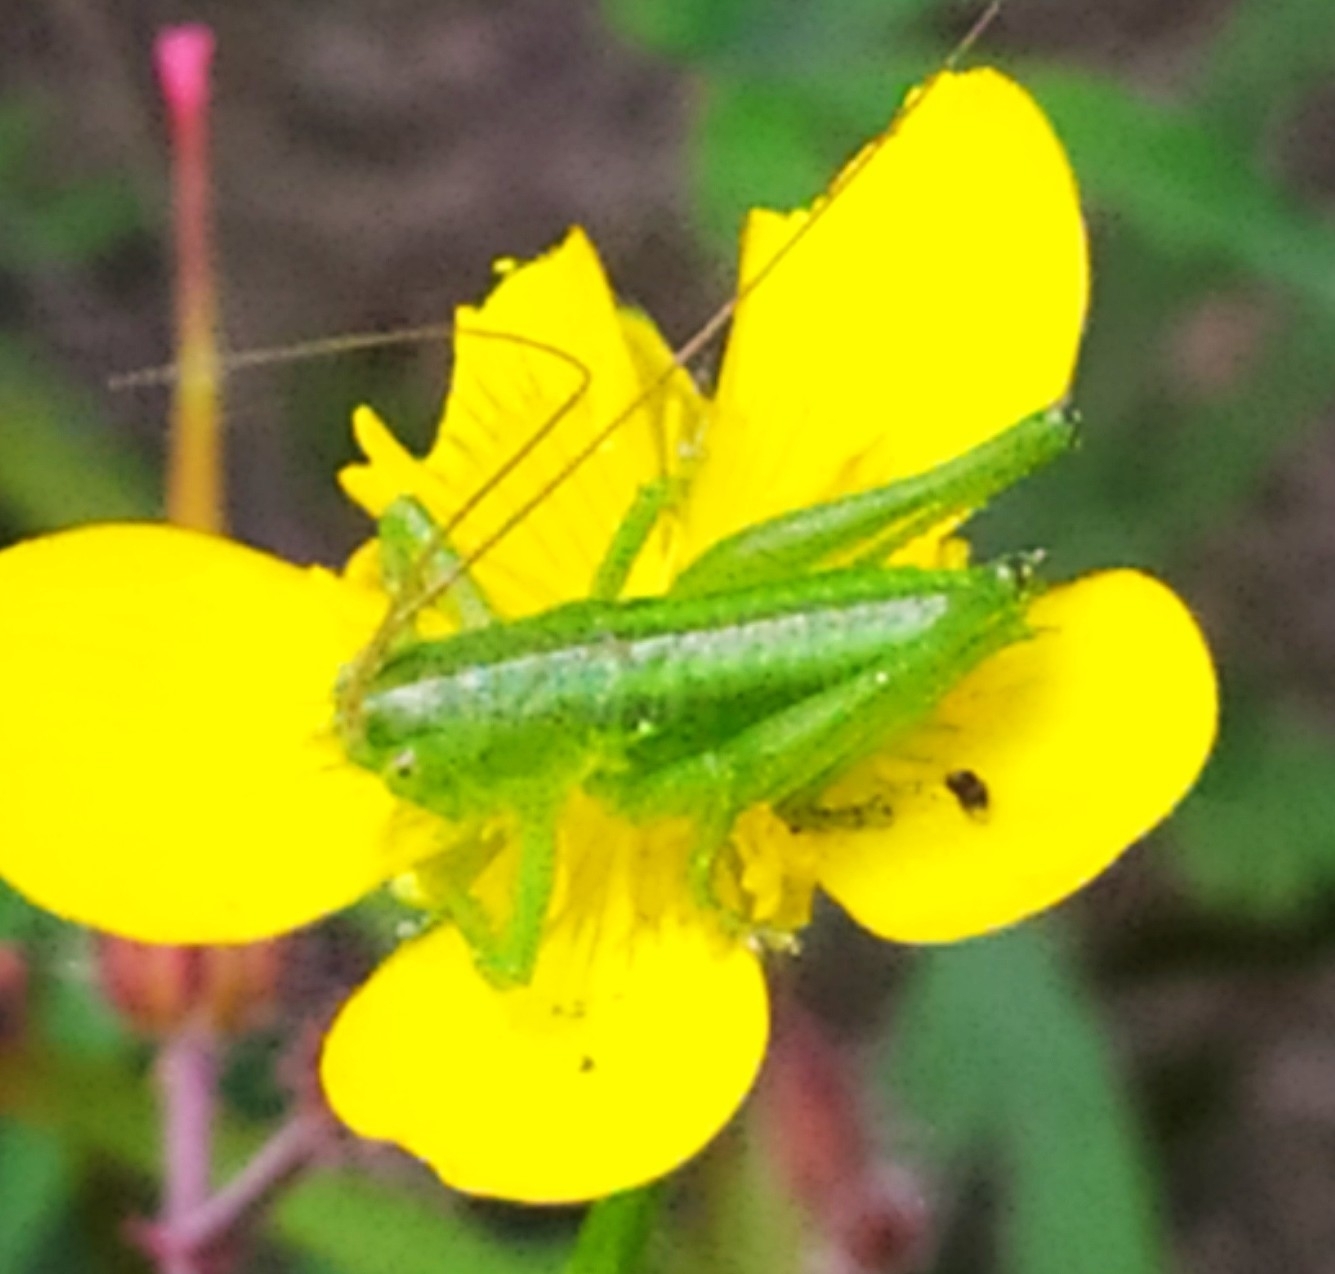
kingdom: Animalia
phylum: Arthropoda
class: Insecta
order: Orthoptera
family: Tettigoniidae
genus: Tettigonia
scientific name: Tettigonia viridissima
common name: Great green bush-cricket
